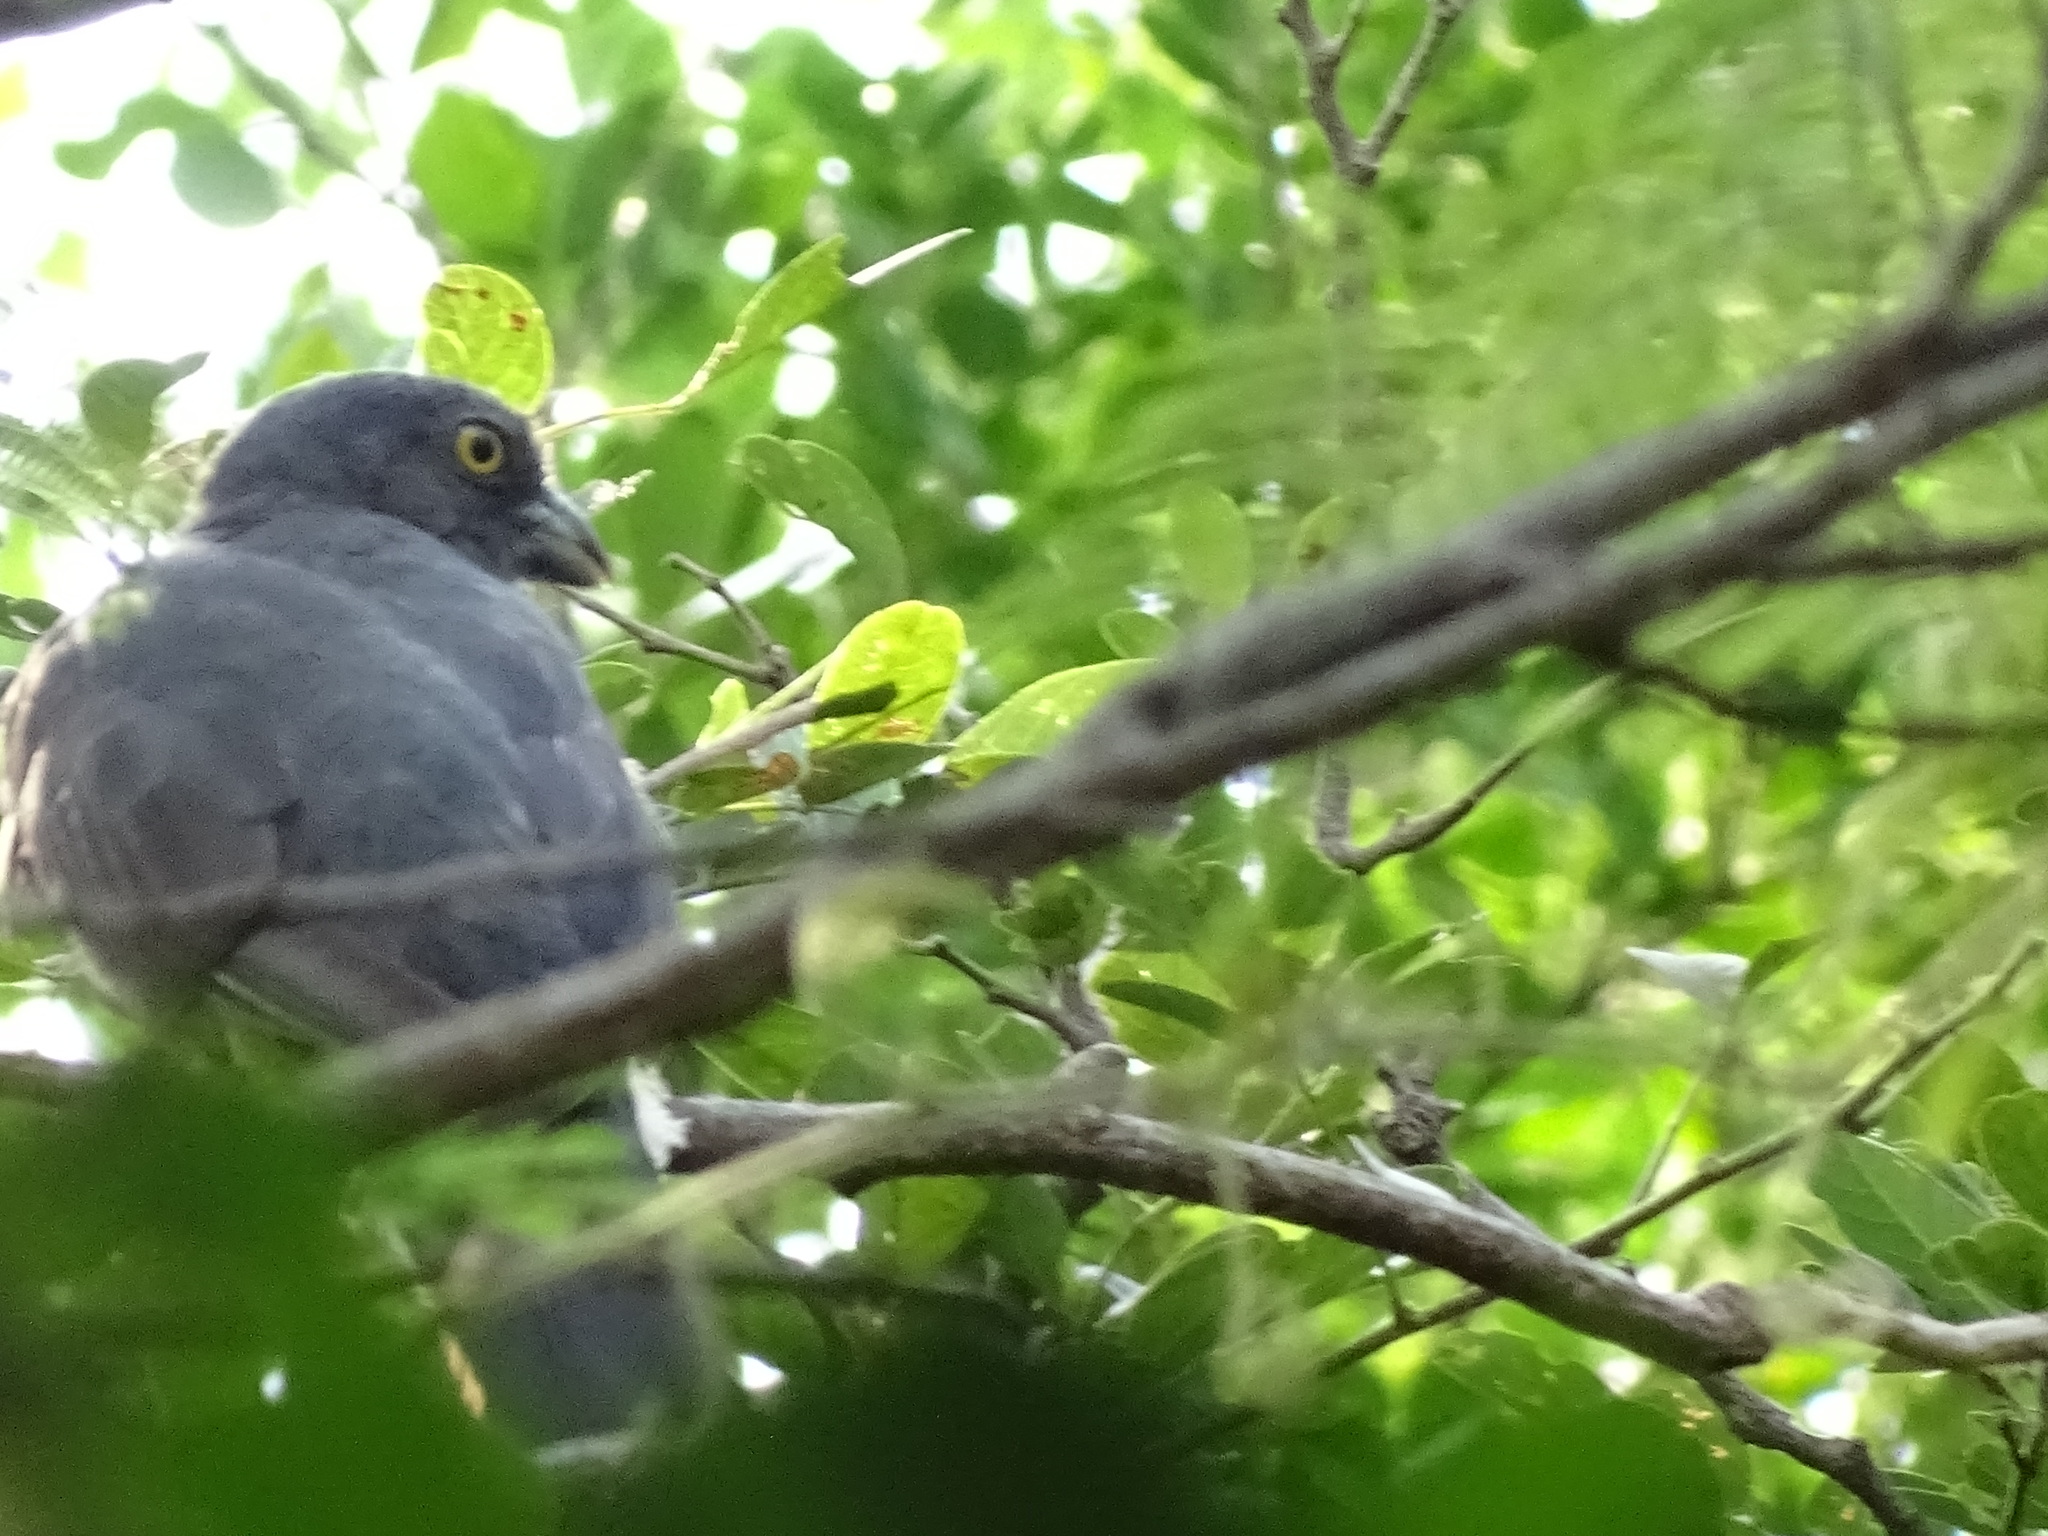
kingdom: Animalia
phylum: Chordata
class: Aves
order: Trogoniformes
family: Trogonidae
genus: Trogon
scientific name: Trogon citreolus
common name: Citreoline trogon
